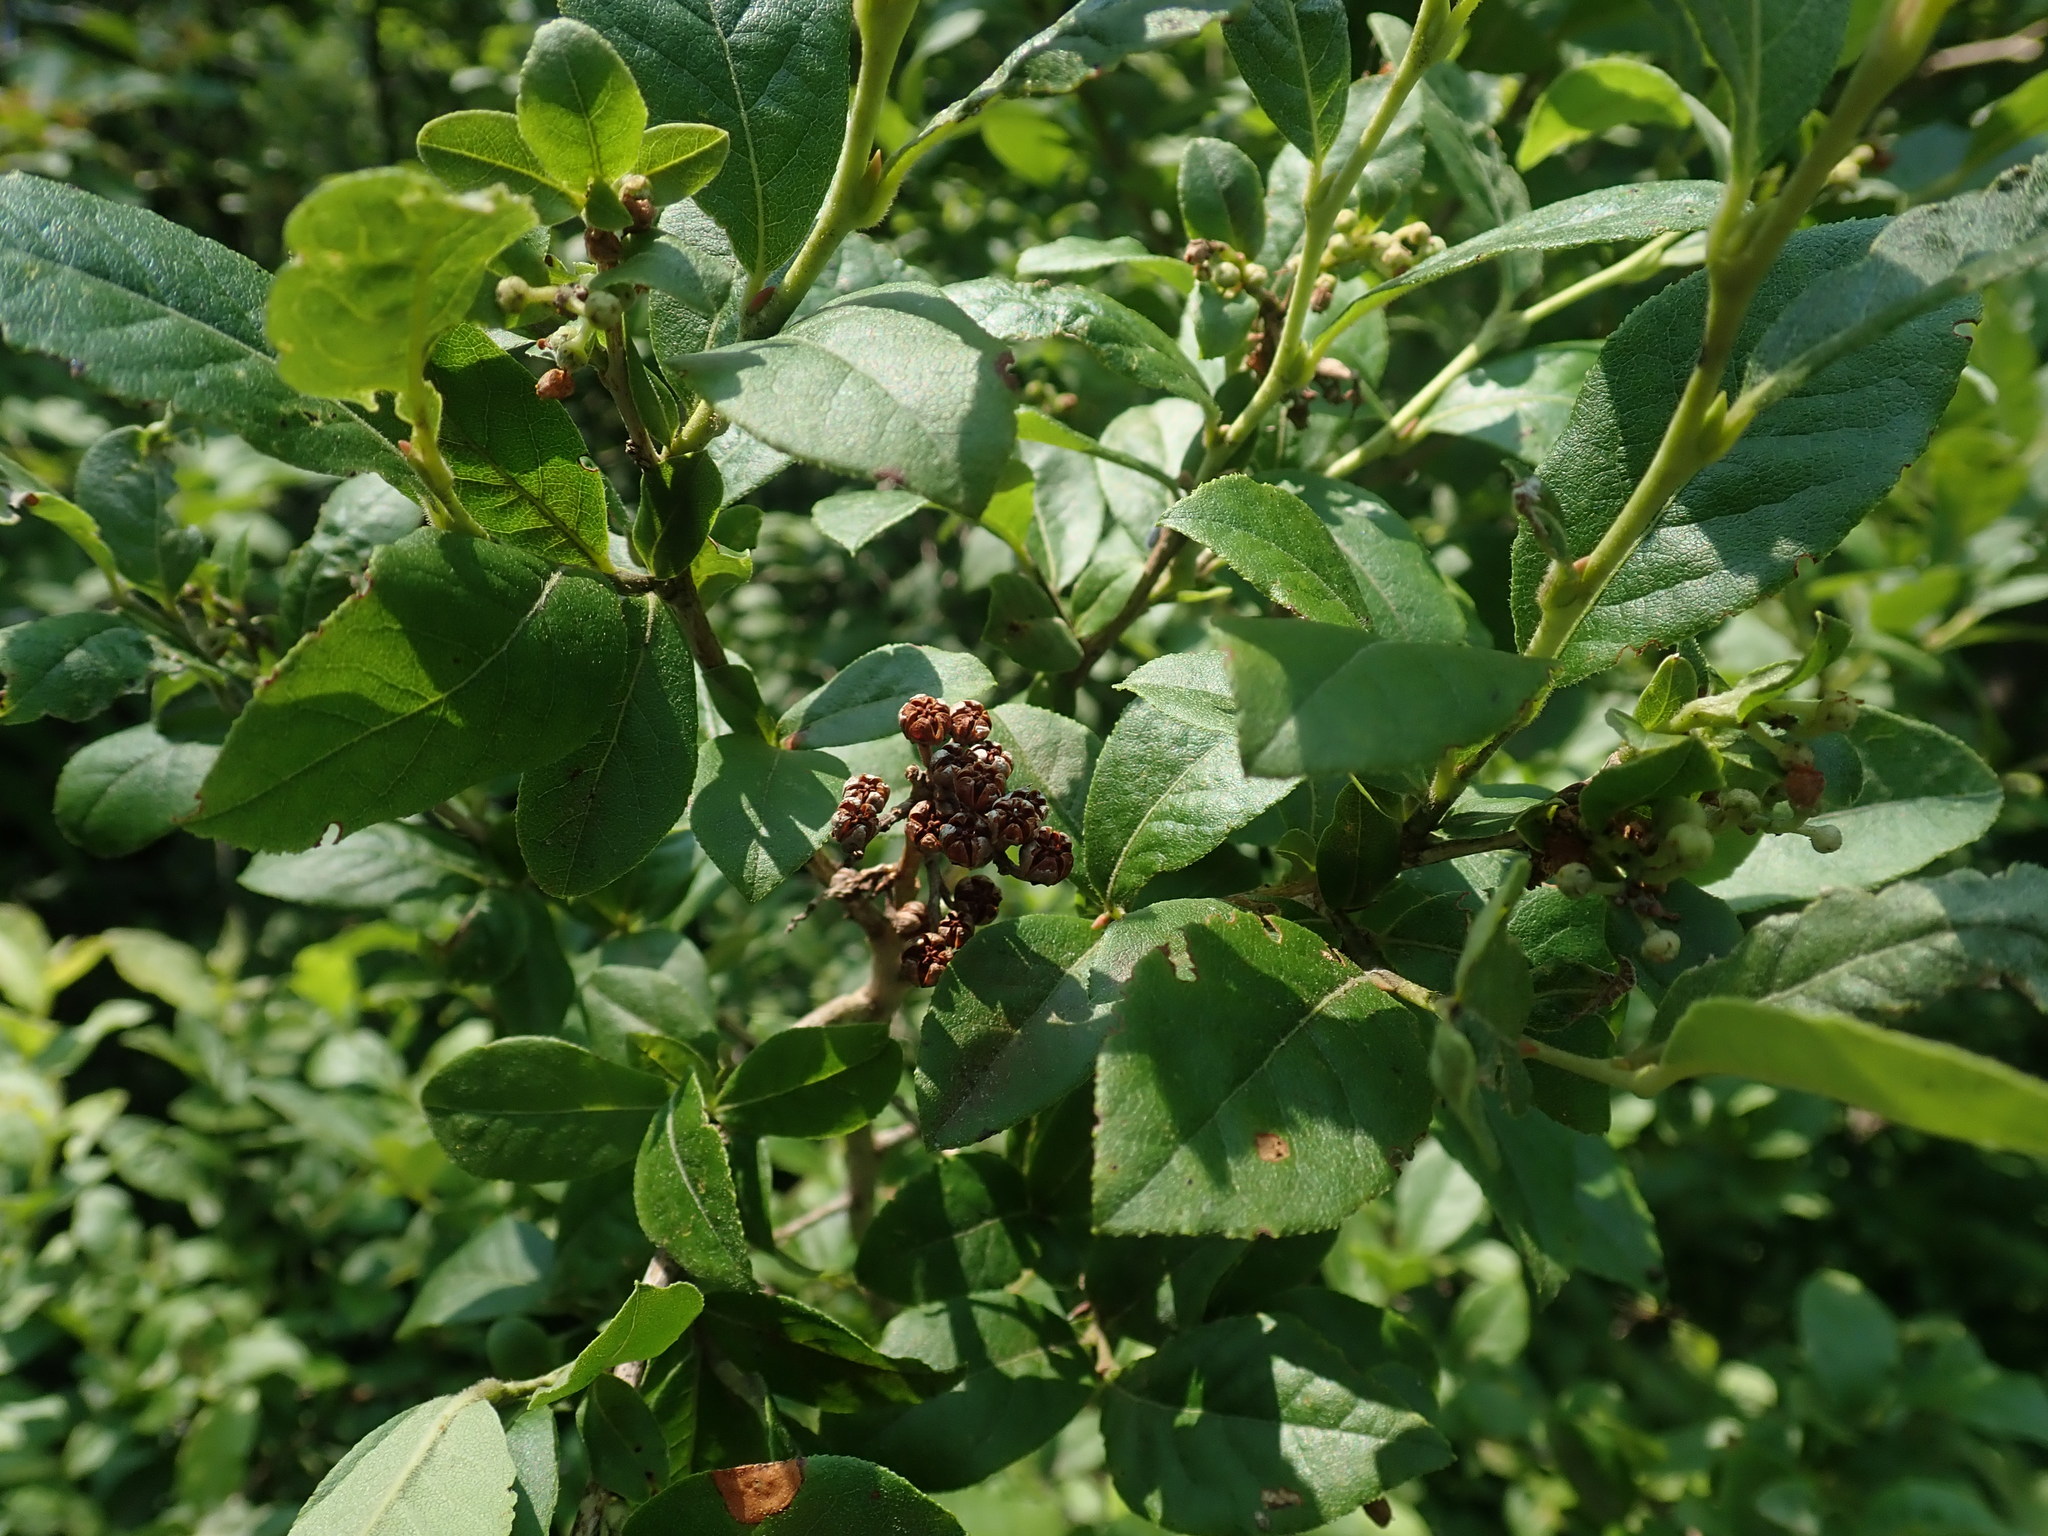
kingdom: Plantae
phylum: Tracheophyta
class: Magnoliopsida
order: Ericales
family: Ericaceae
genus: Lyonia
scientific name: Lyonia ligustrina
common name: Maleberry
